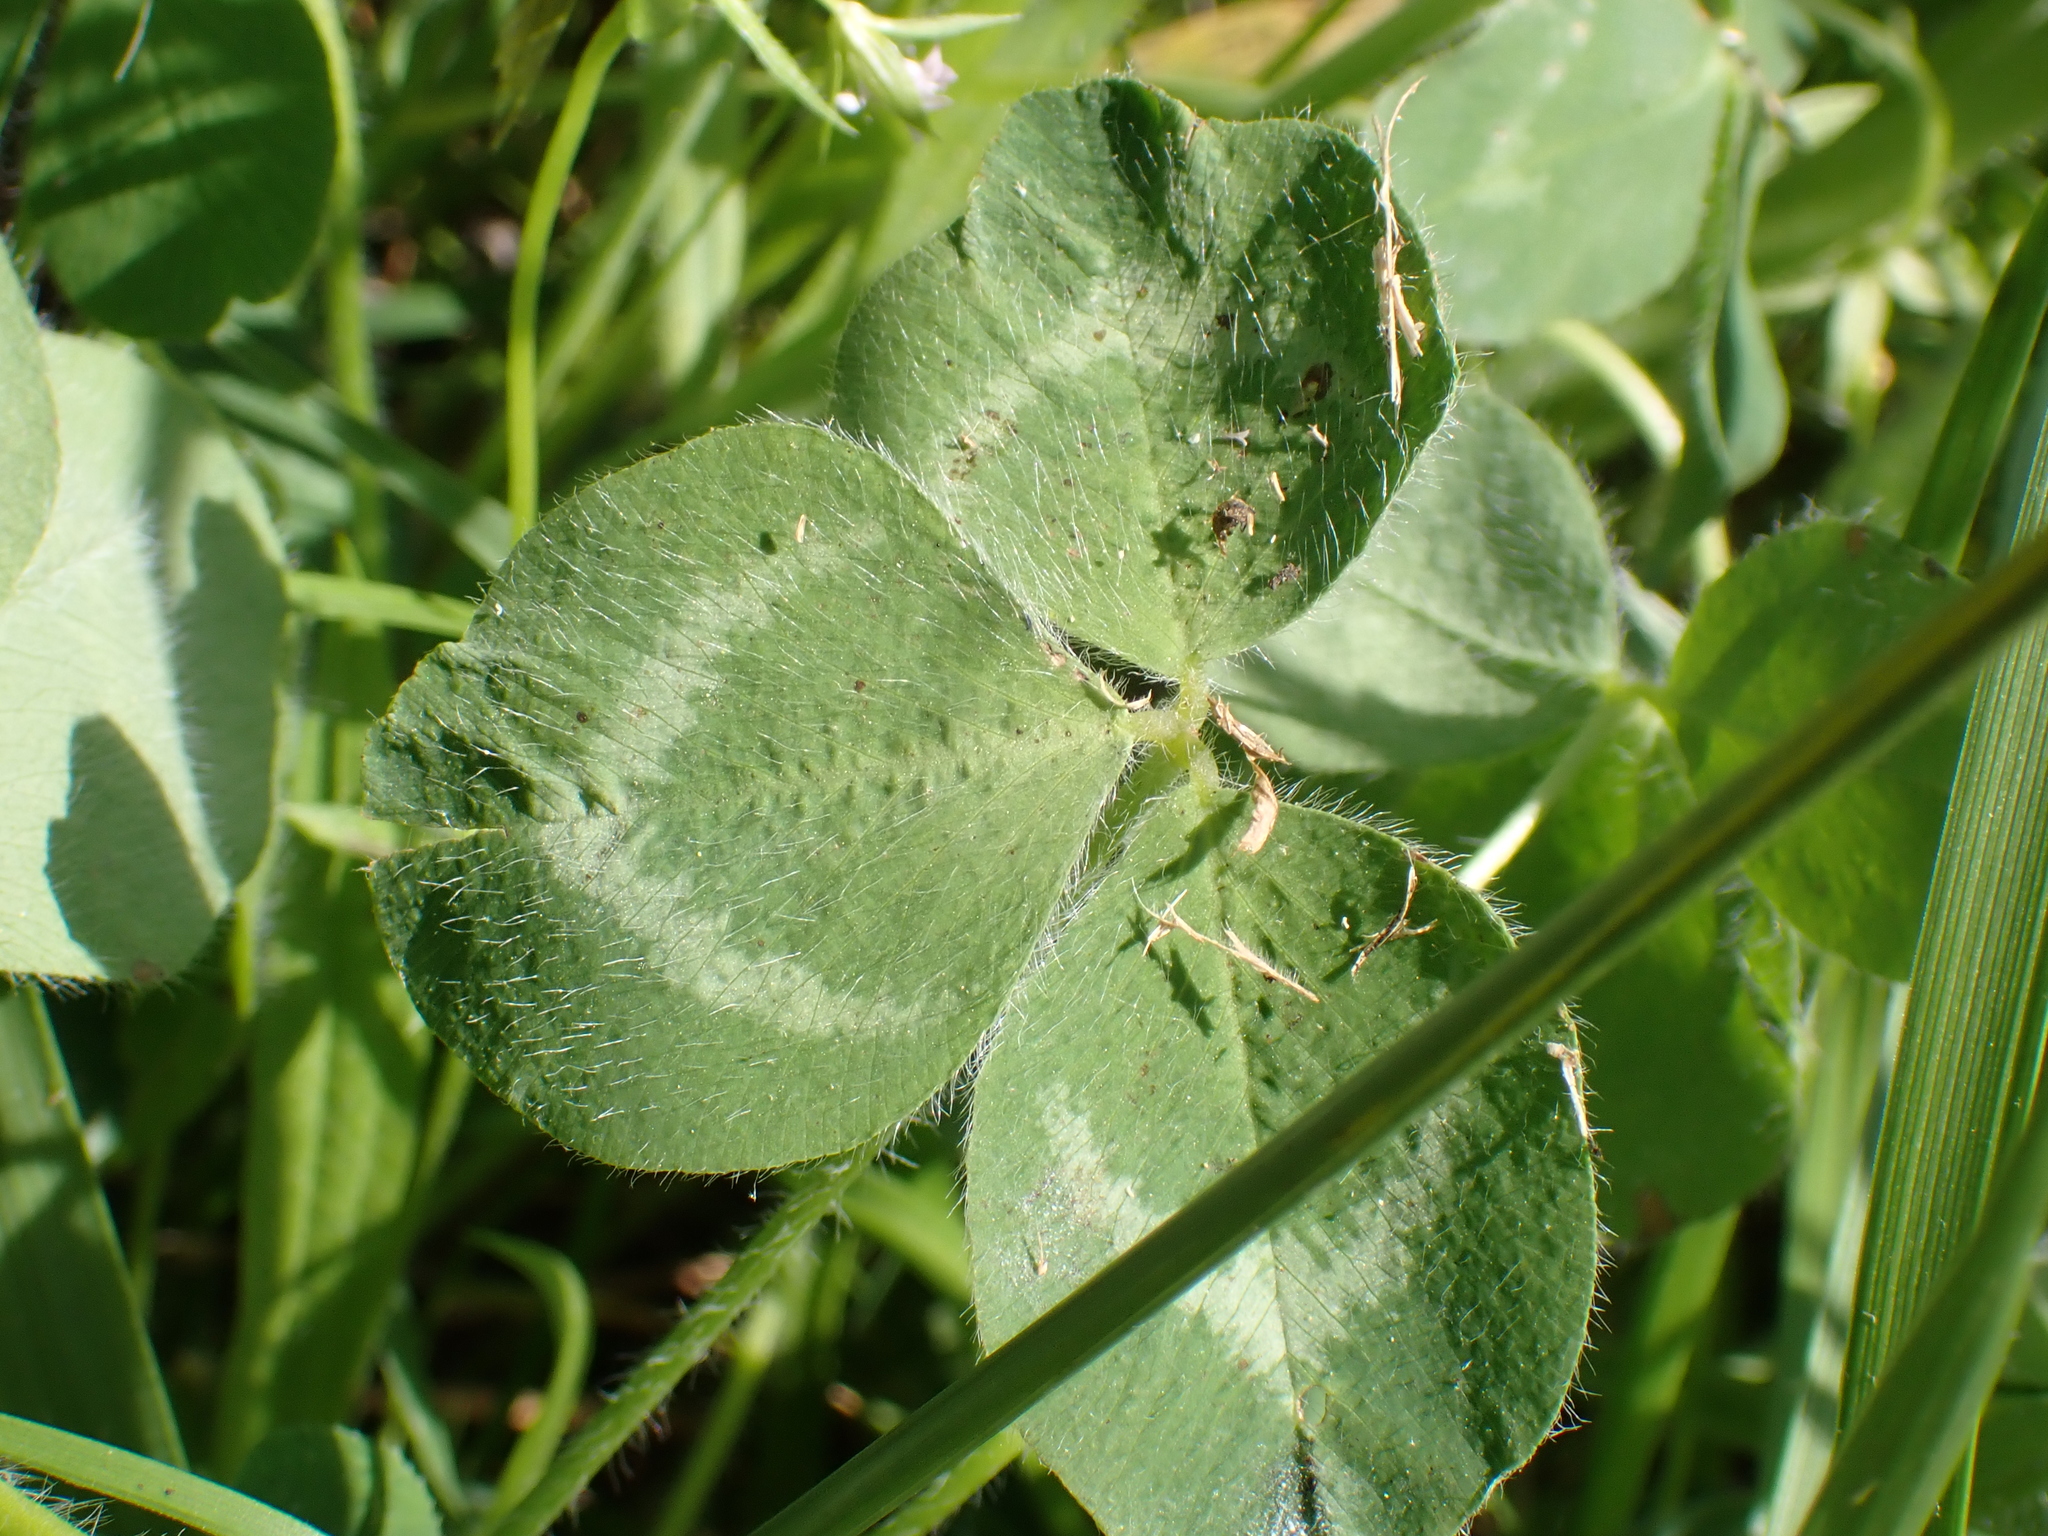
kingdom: Plantae
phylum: Tracheophyta
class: Magnoliopsida
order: Fabales
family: Fabaceae
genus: Trifolium
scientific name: Trifolium pratense
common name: Red clover
